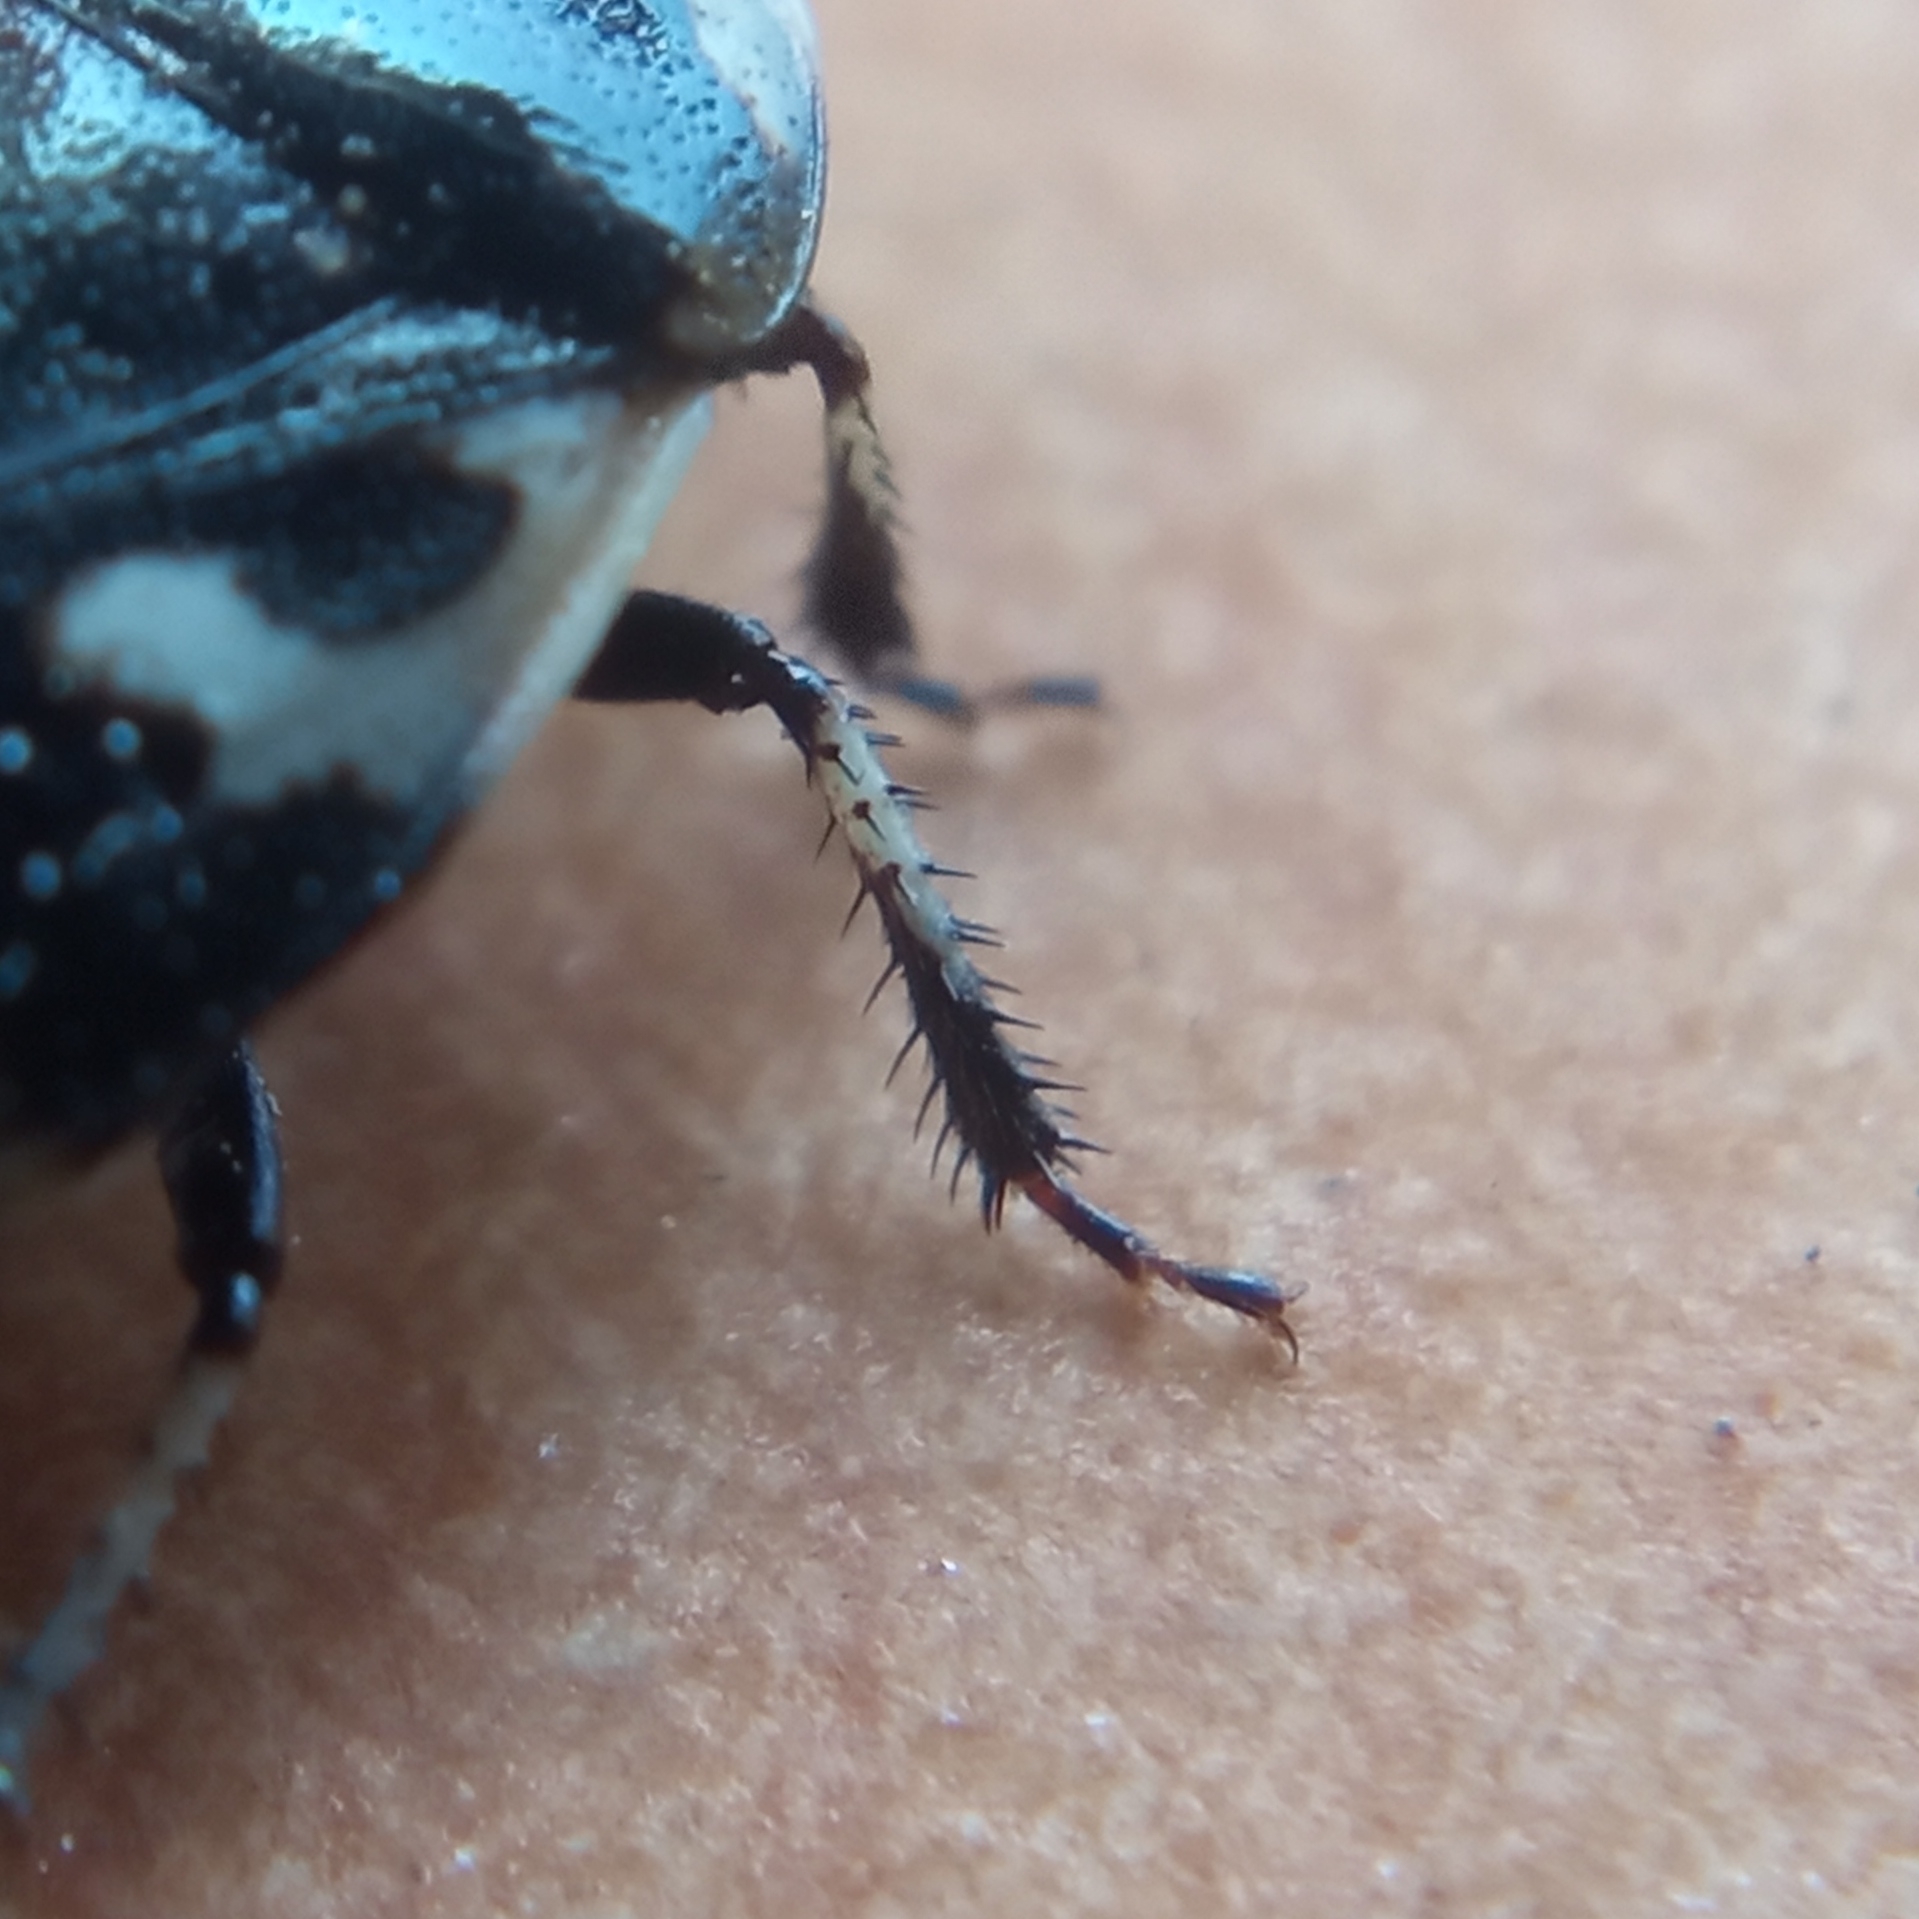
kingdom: Animalia
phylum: Arthropoda
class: Insecta
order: Hemiptera
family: Cydnidae
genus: Tritomegas
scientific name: Tritomegas bicolor
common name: Pied shieldbug
